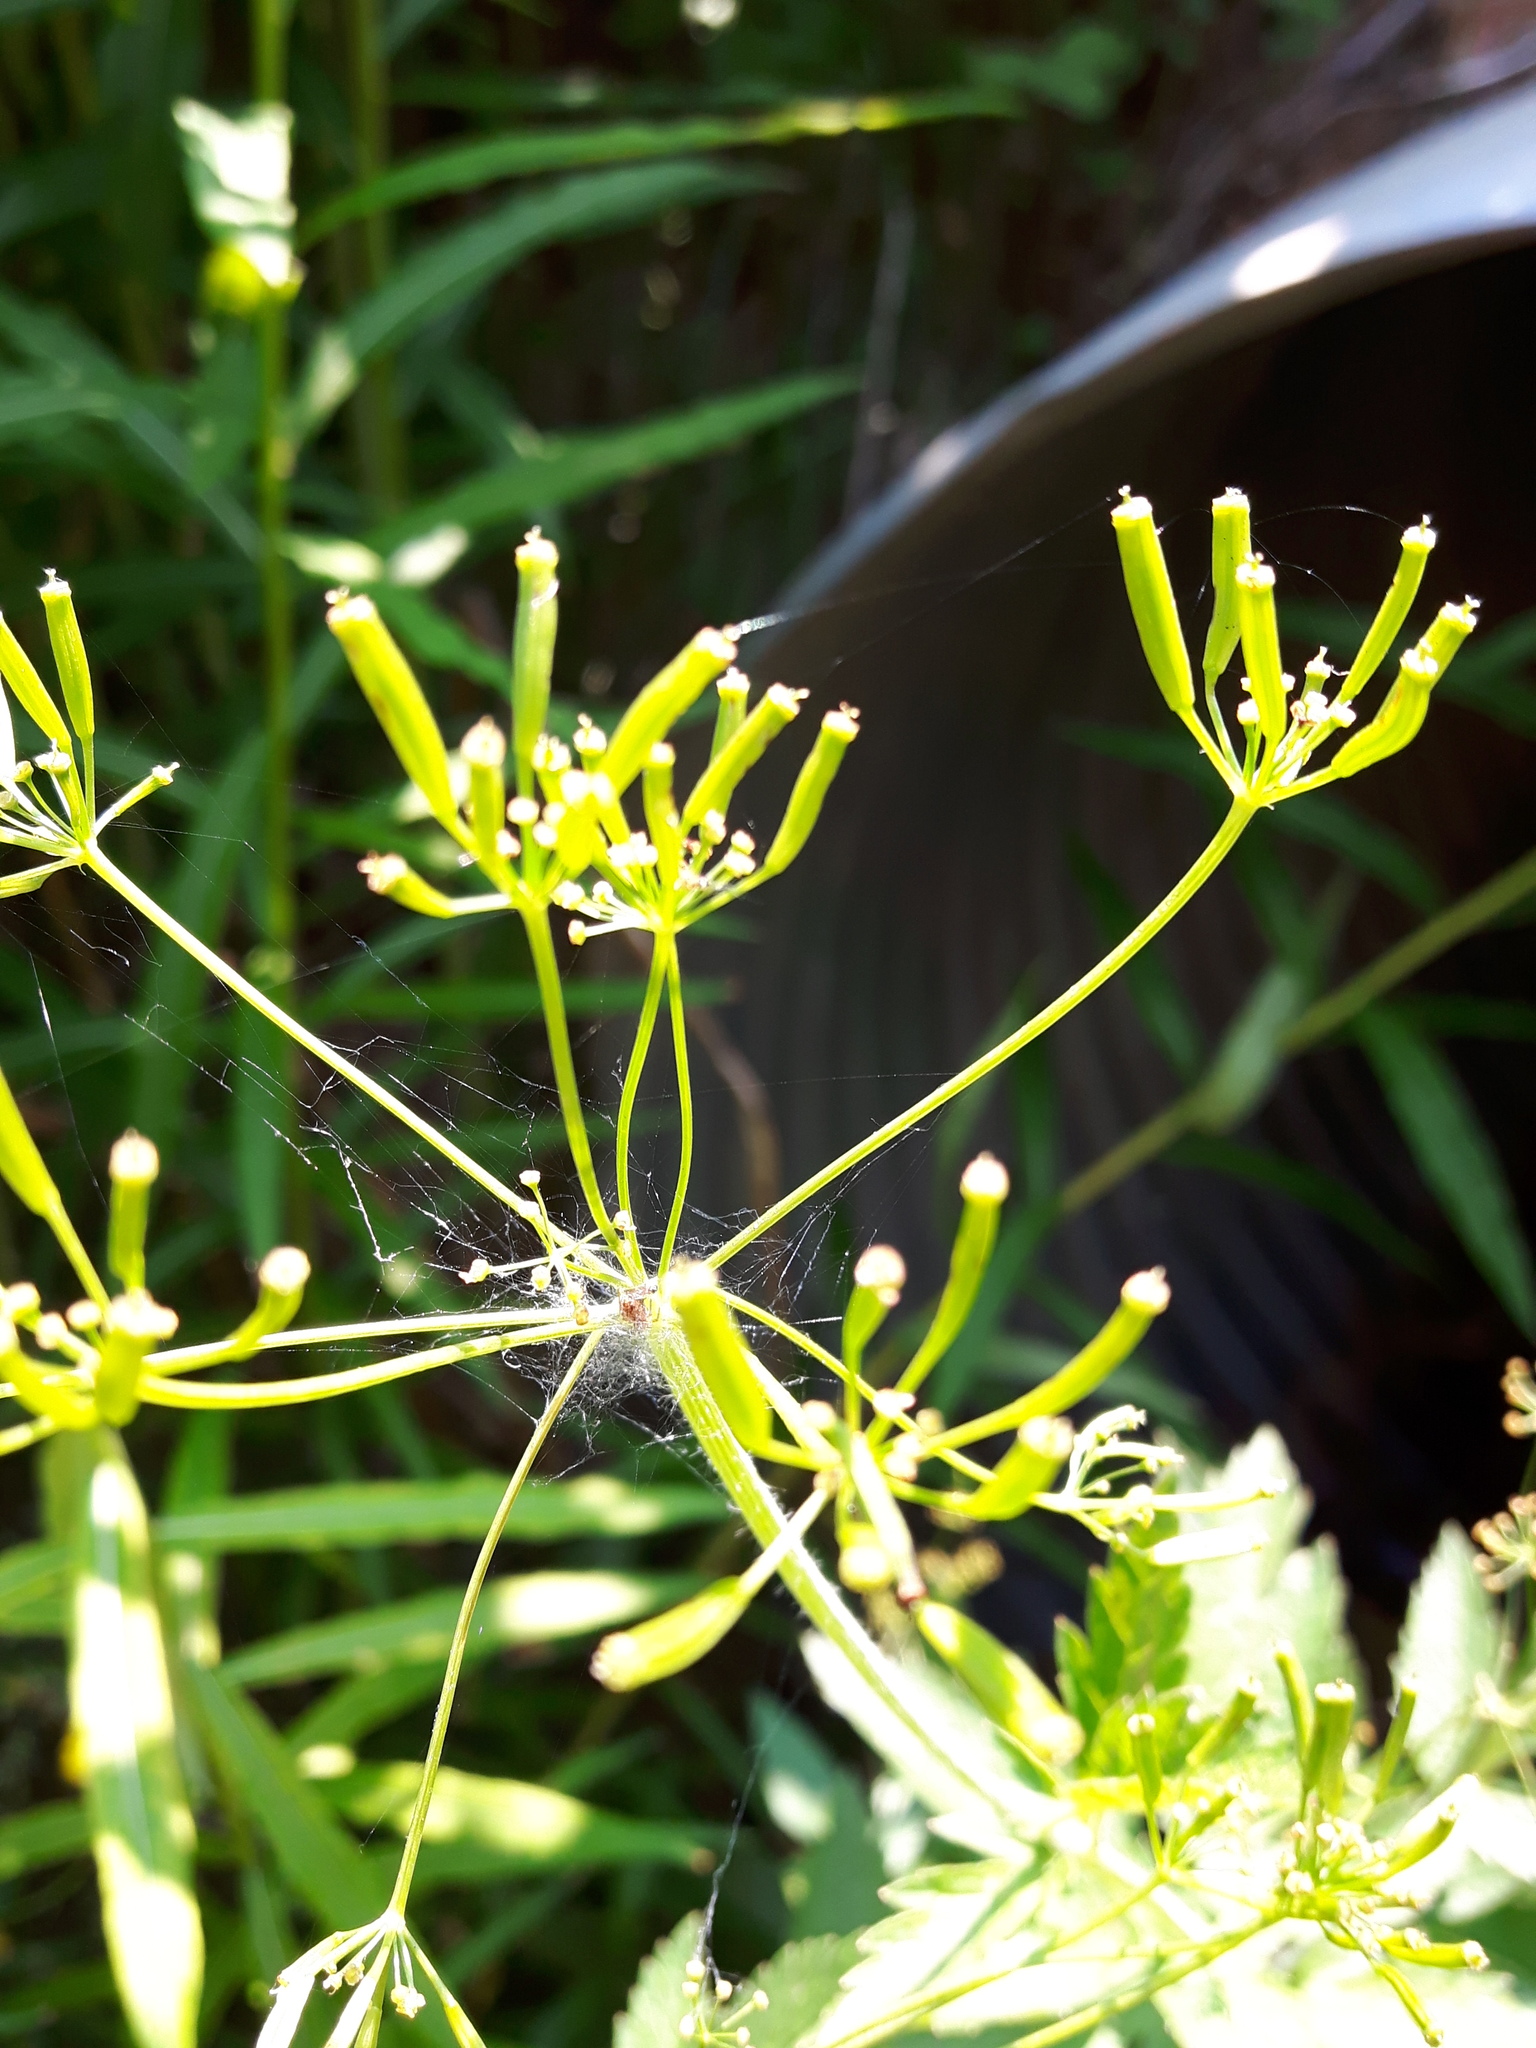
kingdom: Plantae
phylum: Tracheophyta
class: Magnoliopsida
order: Apiales
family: Apiaceae
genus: Osmorhiza
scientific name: Osmorhiza occidentalis
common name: Western sweet cicely
